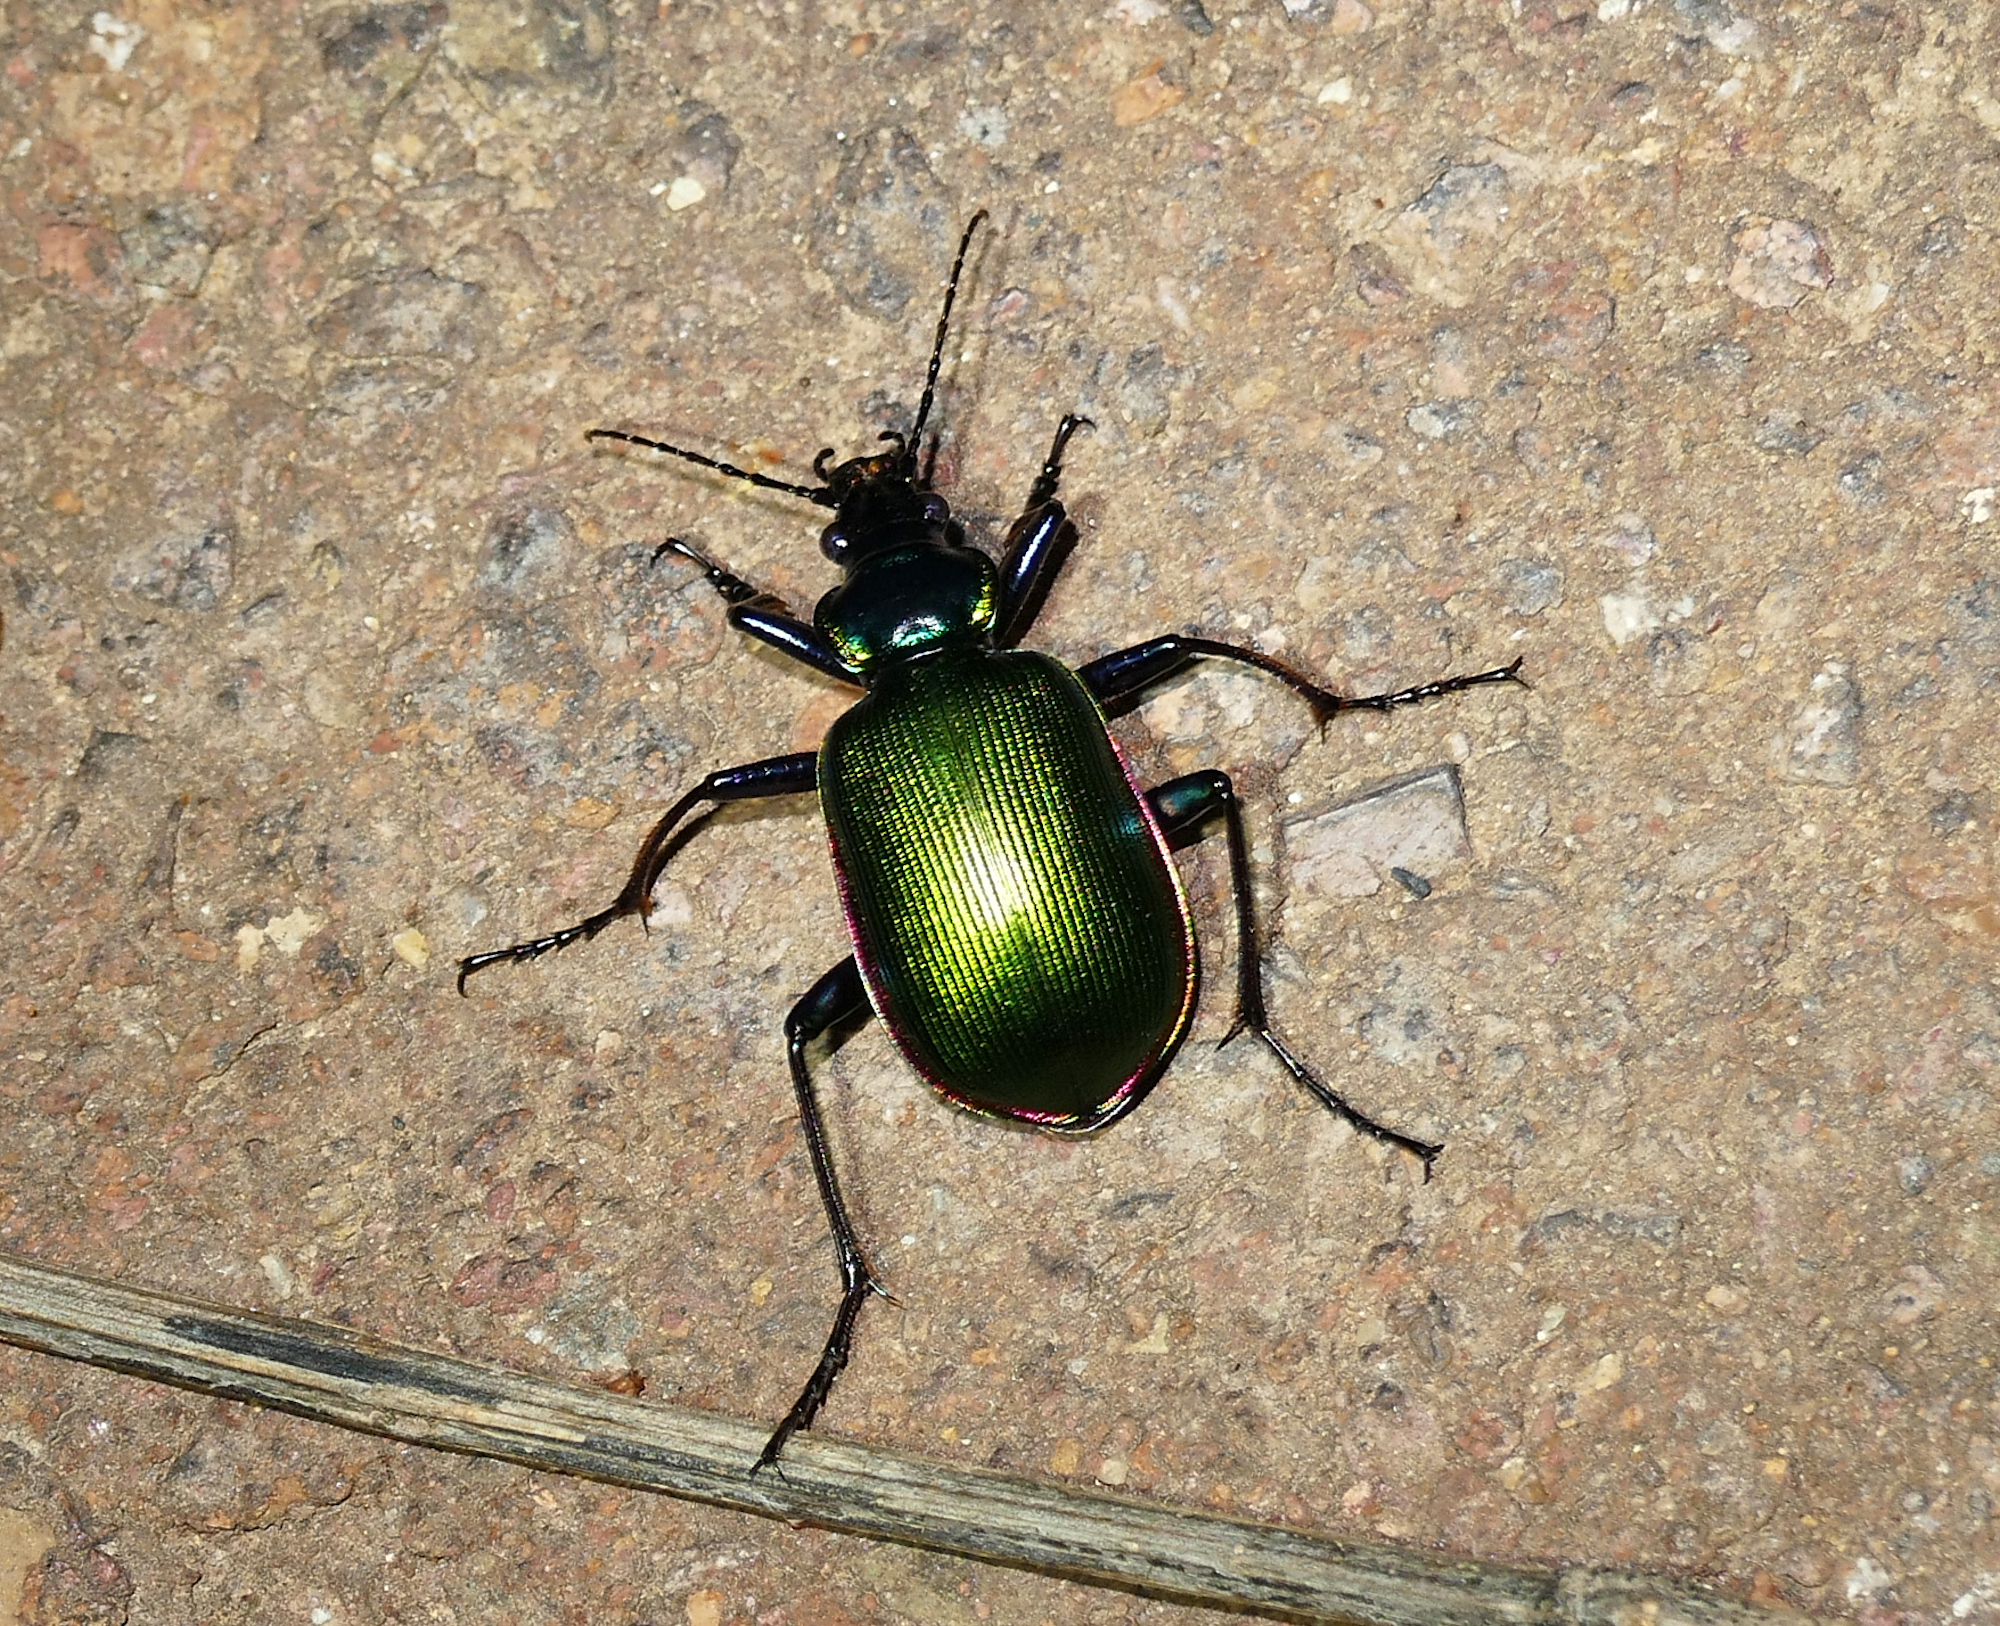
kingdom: Animalia
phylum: Arthropoda
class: Insecta
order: Coleoptera
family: Carabidae
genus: Calosoma
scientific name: Calosoma scrutator
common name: Fiery searcher beetle
